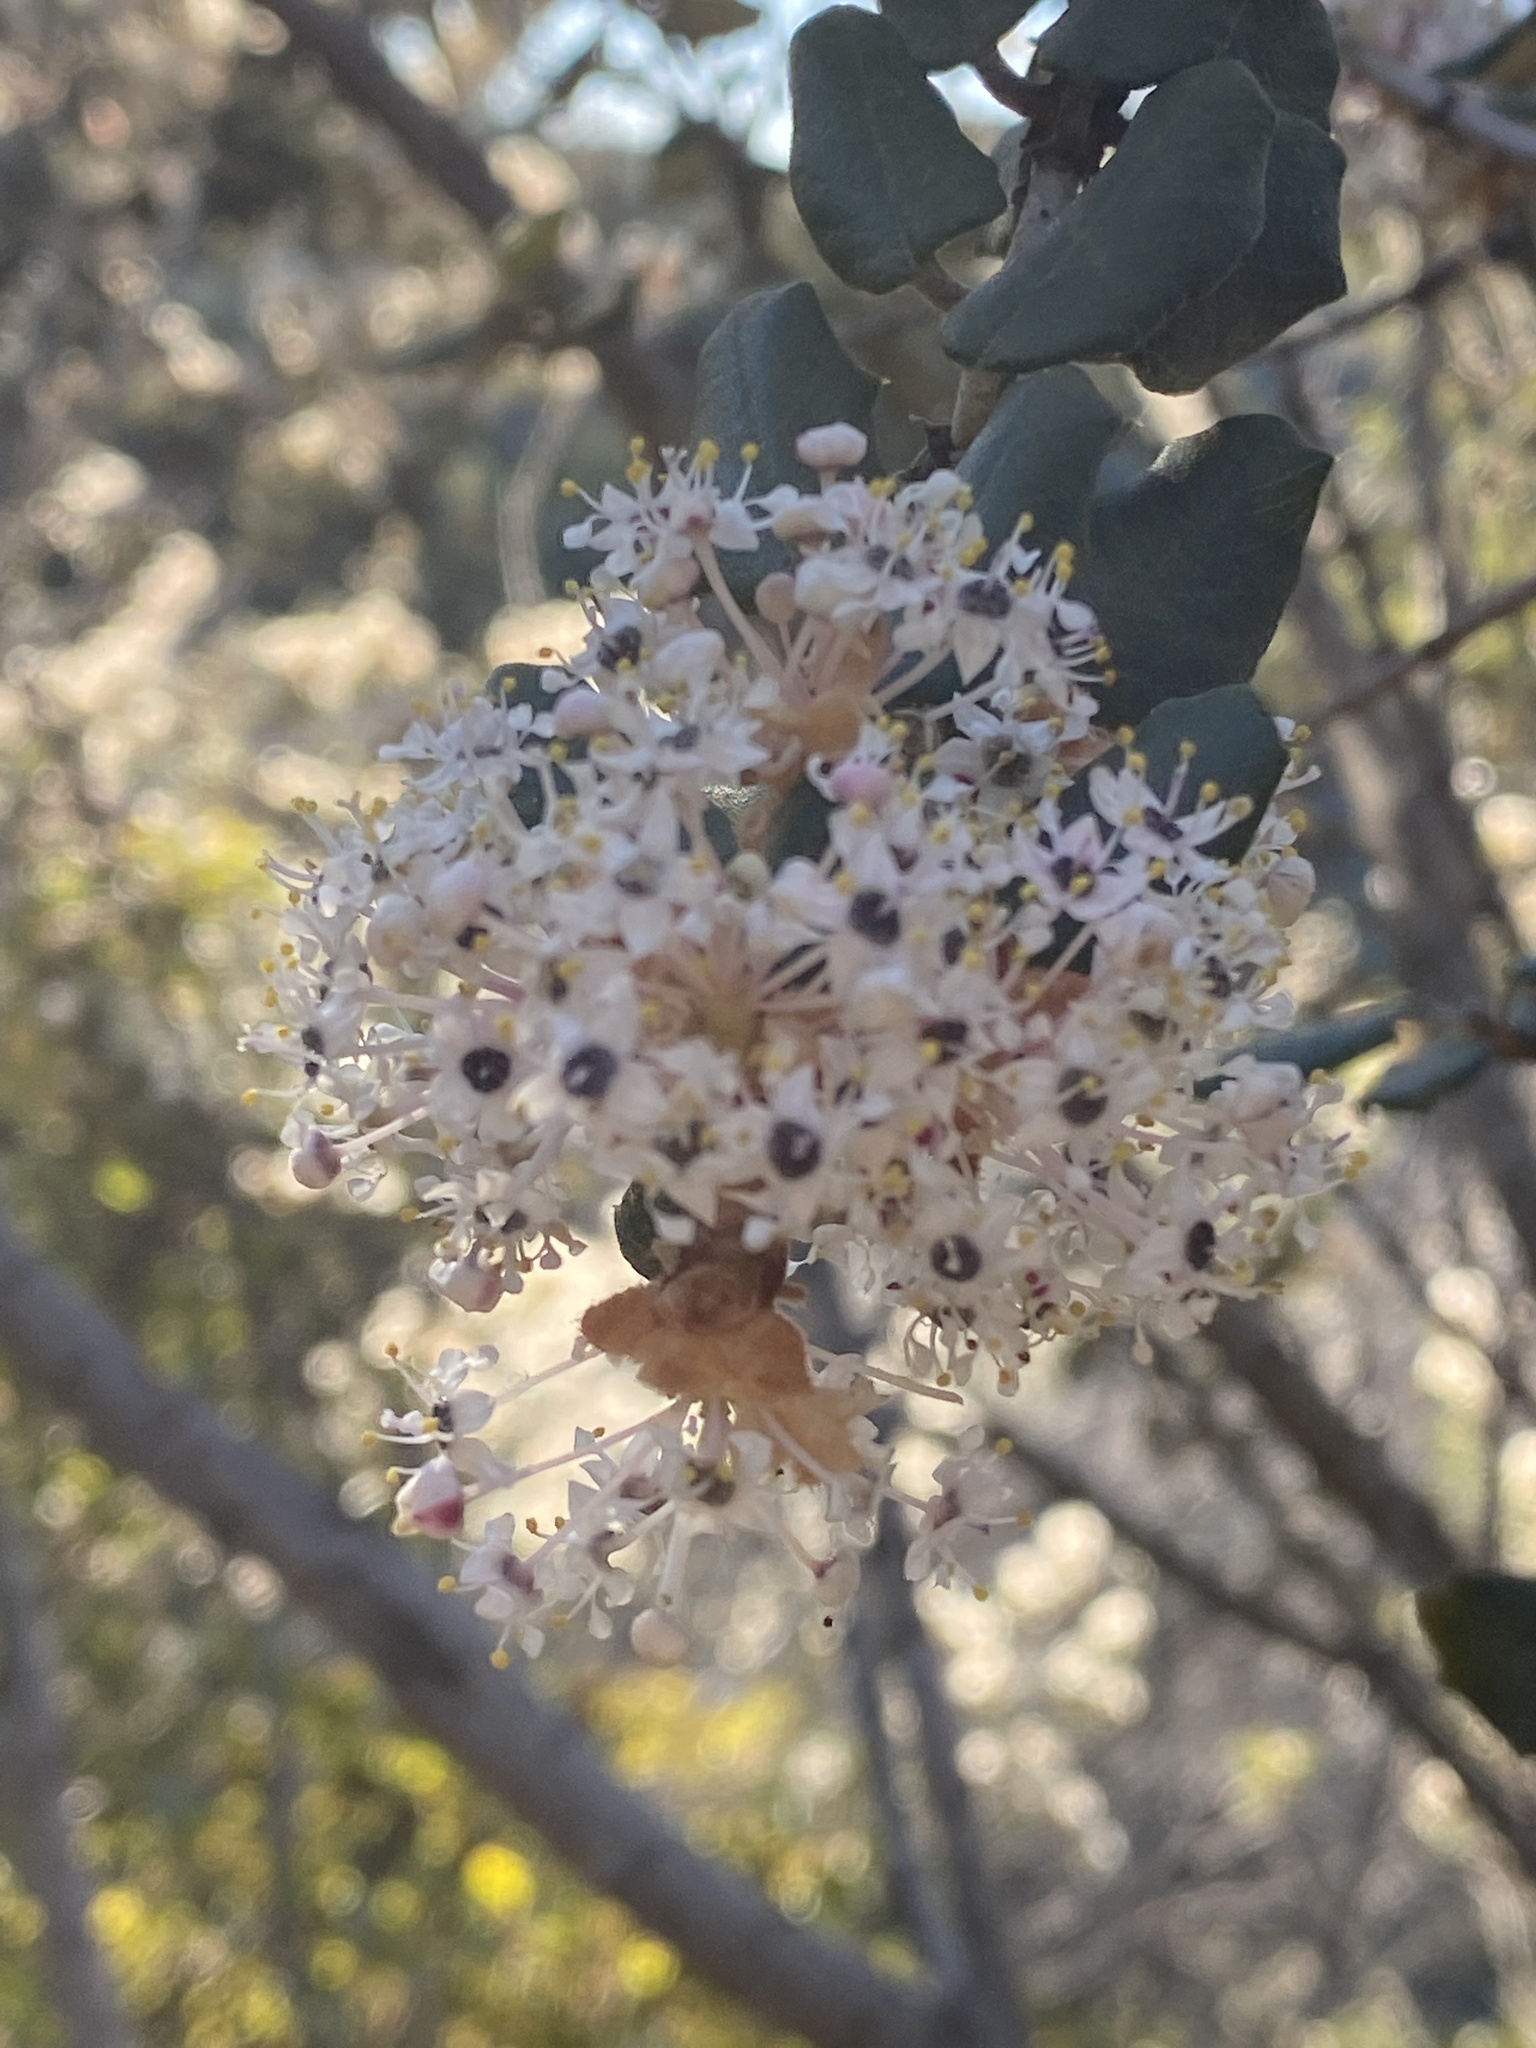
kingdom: Plantae
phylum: Tracheophyta
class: Magnoliopsida
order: Rosales
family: Rhamnaceae
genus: Ceanothus
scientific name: Ceanothus crassifolius
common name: Hoaryleaf ceanothus
